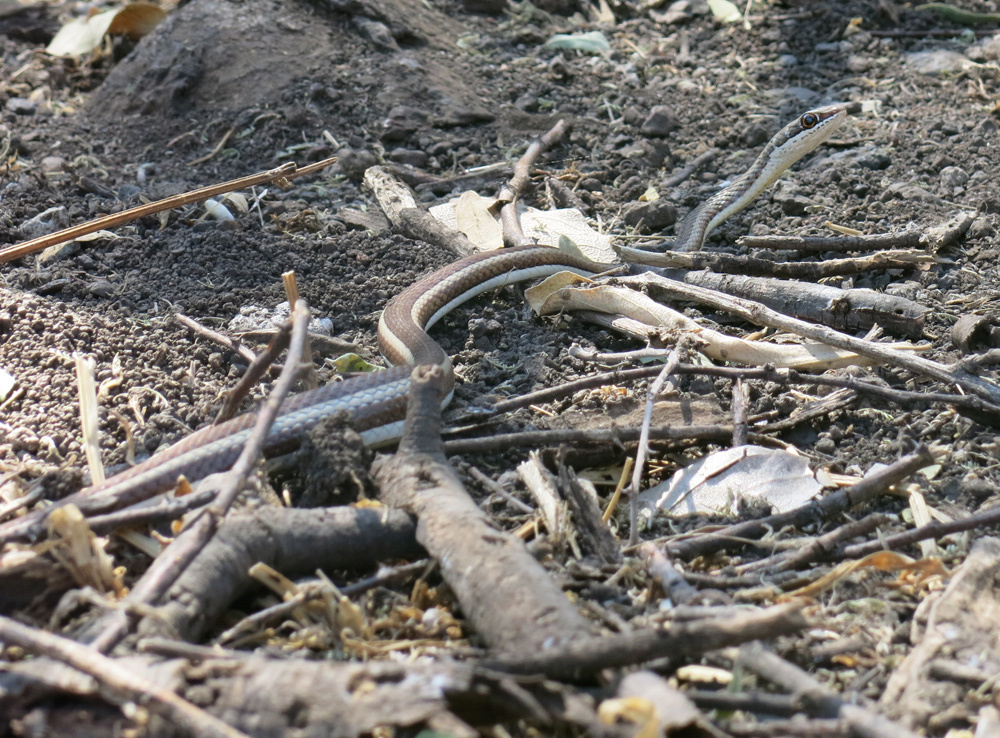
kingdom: Animalia
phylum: Chordata
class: Squamata
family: Psammophiidae
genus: Psammophis
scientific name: Psammophis subtaeniatus
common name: Stripe-bellied sand snake
